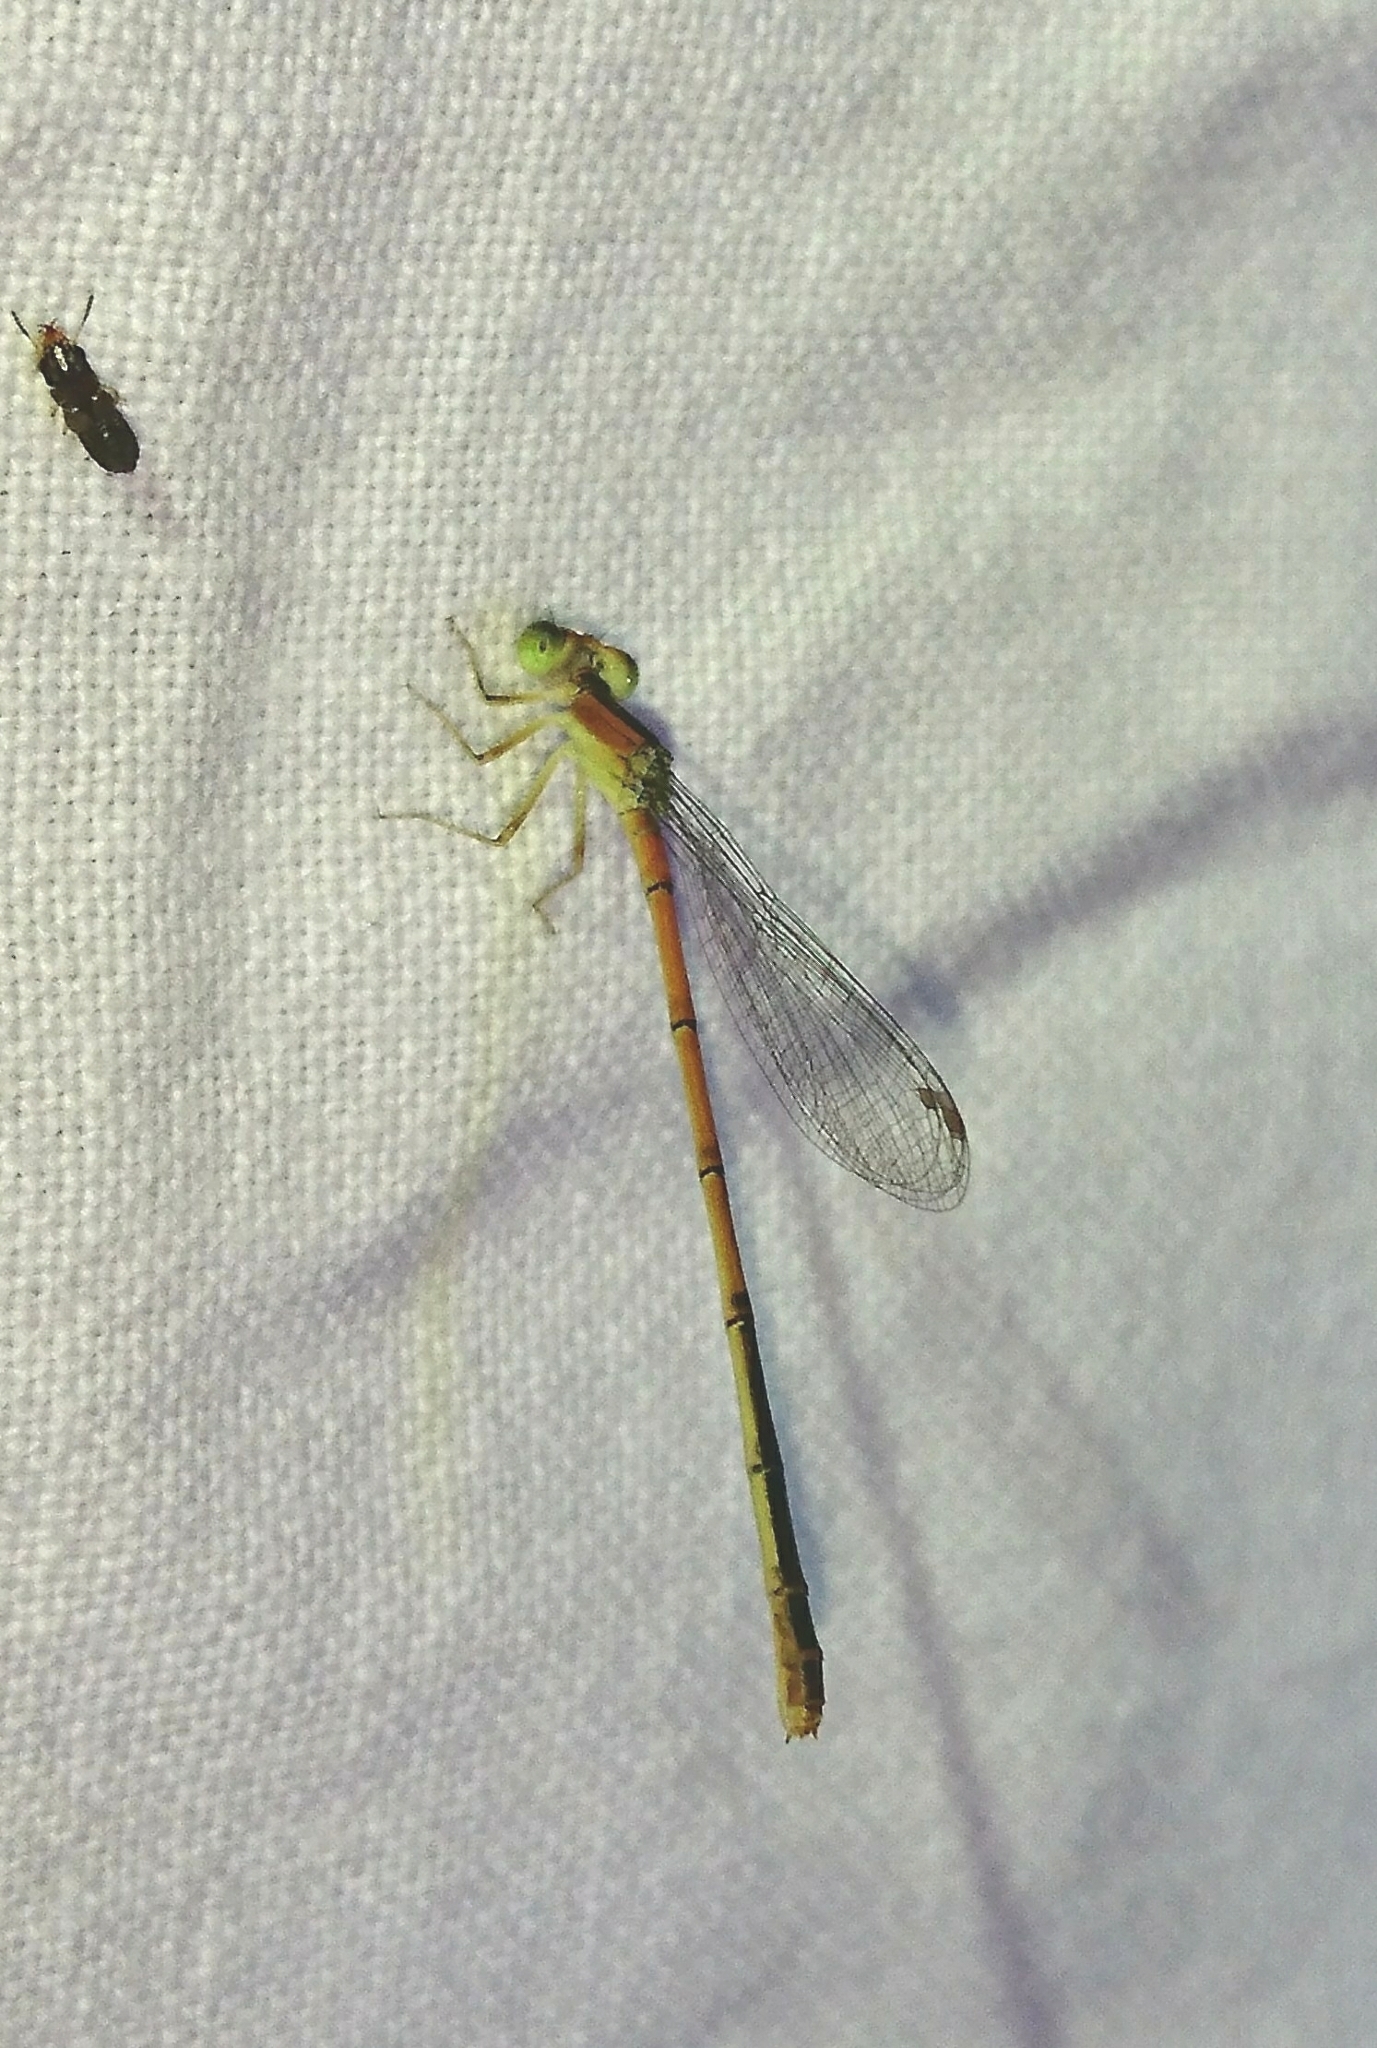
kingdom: Animalia
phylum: Arthropoda
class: Insecta
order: Odonata
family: Coenagrionidae
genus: Ischnura
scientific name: Ischnura hastata
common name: Citrine forktail
